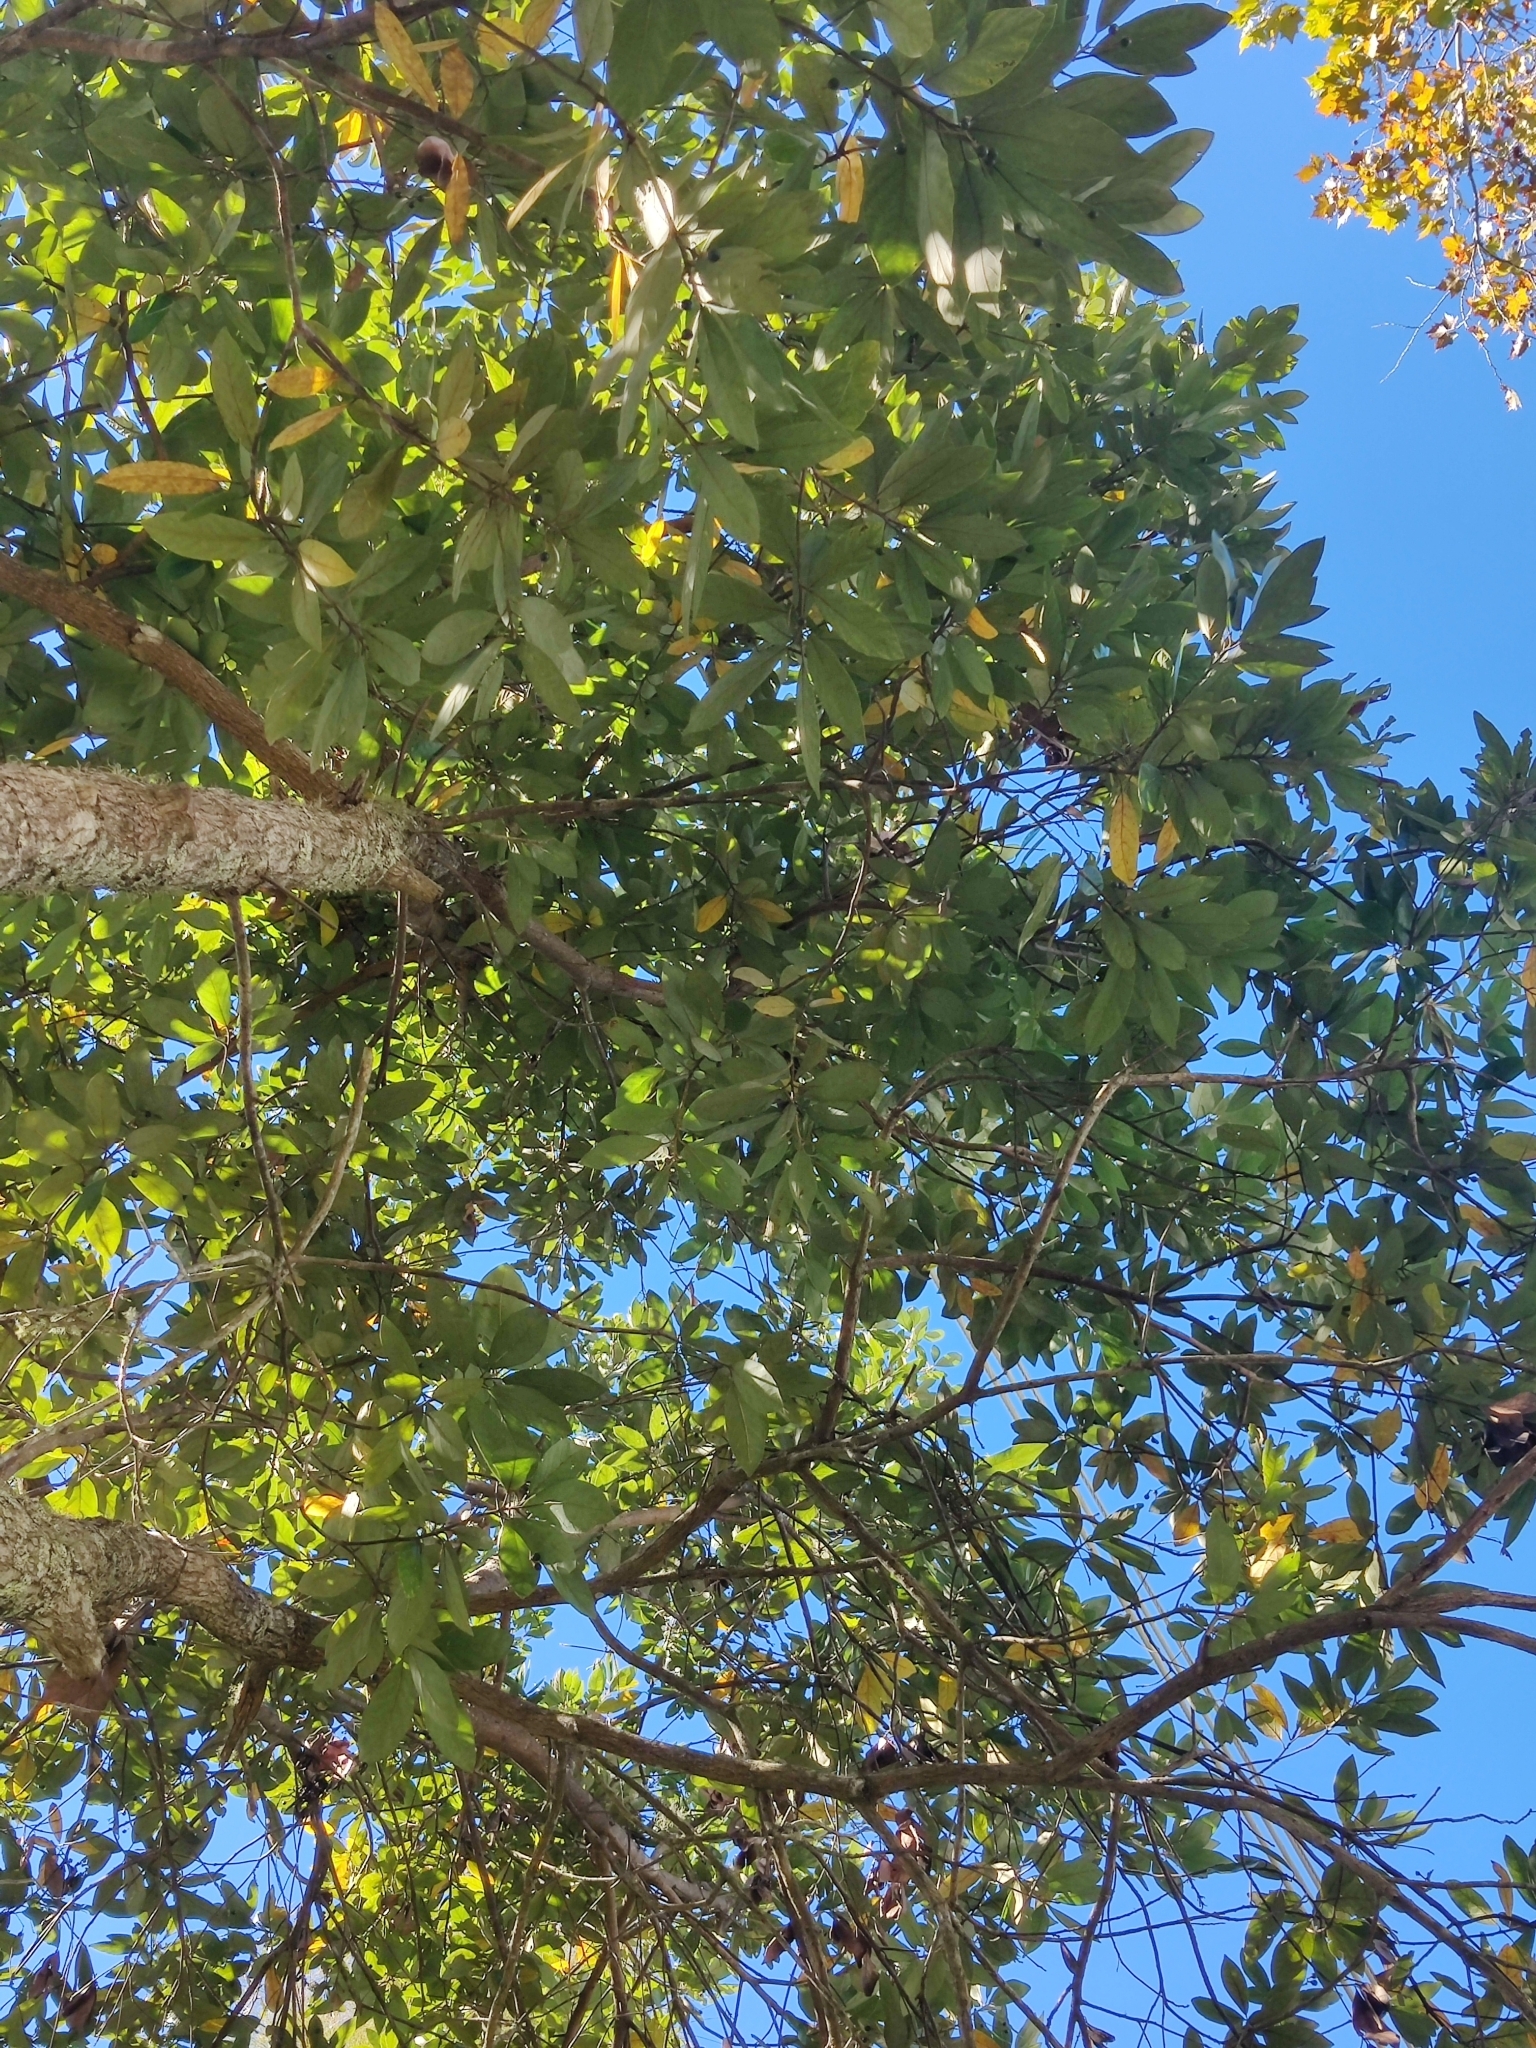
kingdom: Plantae
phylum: Tracheophyta
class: Magnoliopsida
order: Laurales
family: Lauraceae
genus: Persea
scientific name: Persea palustris
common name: Swampbay
